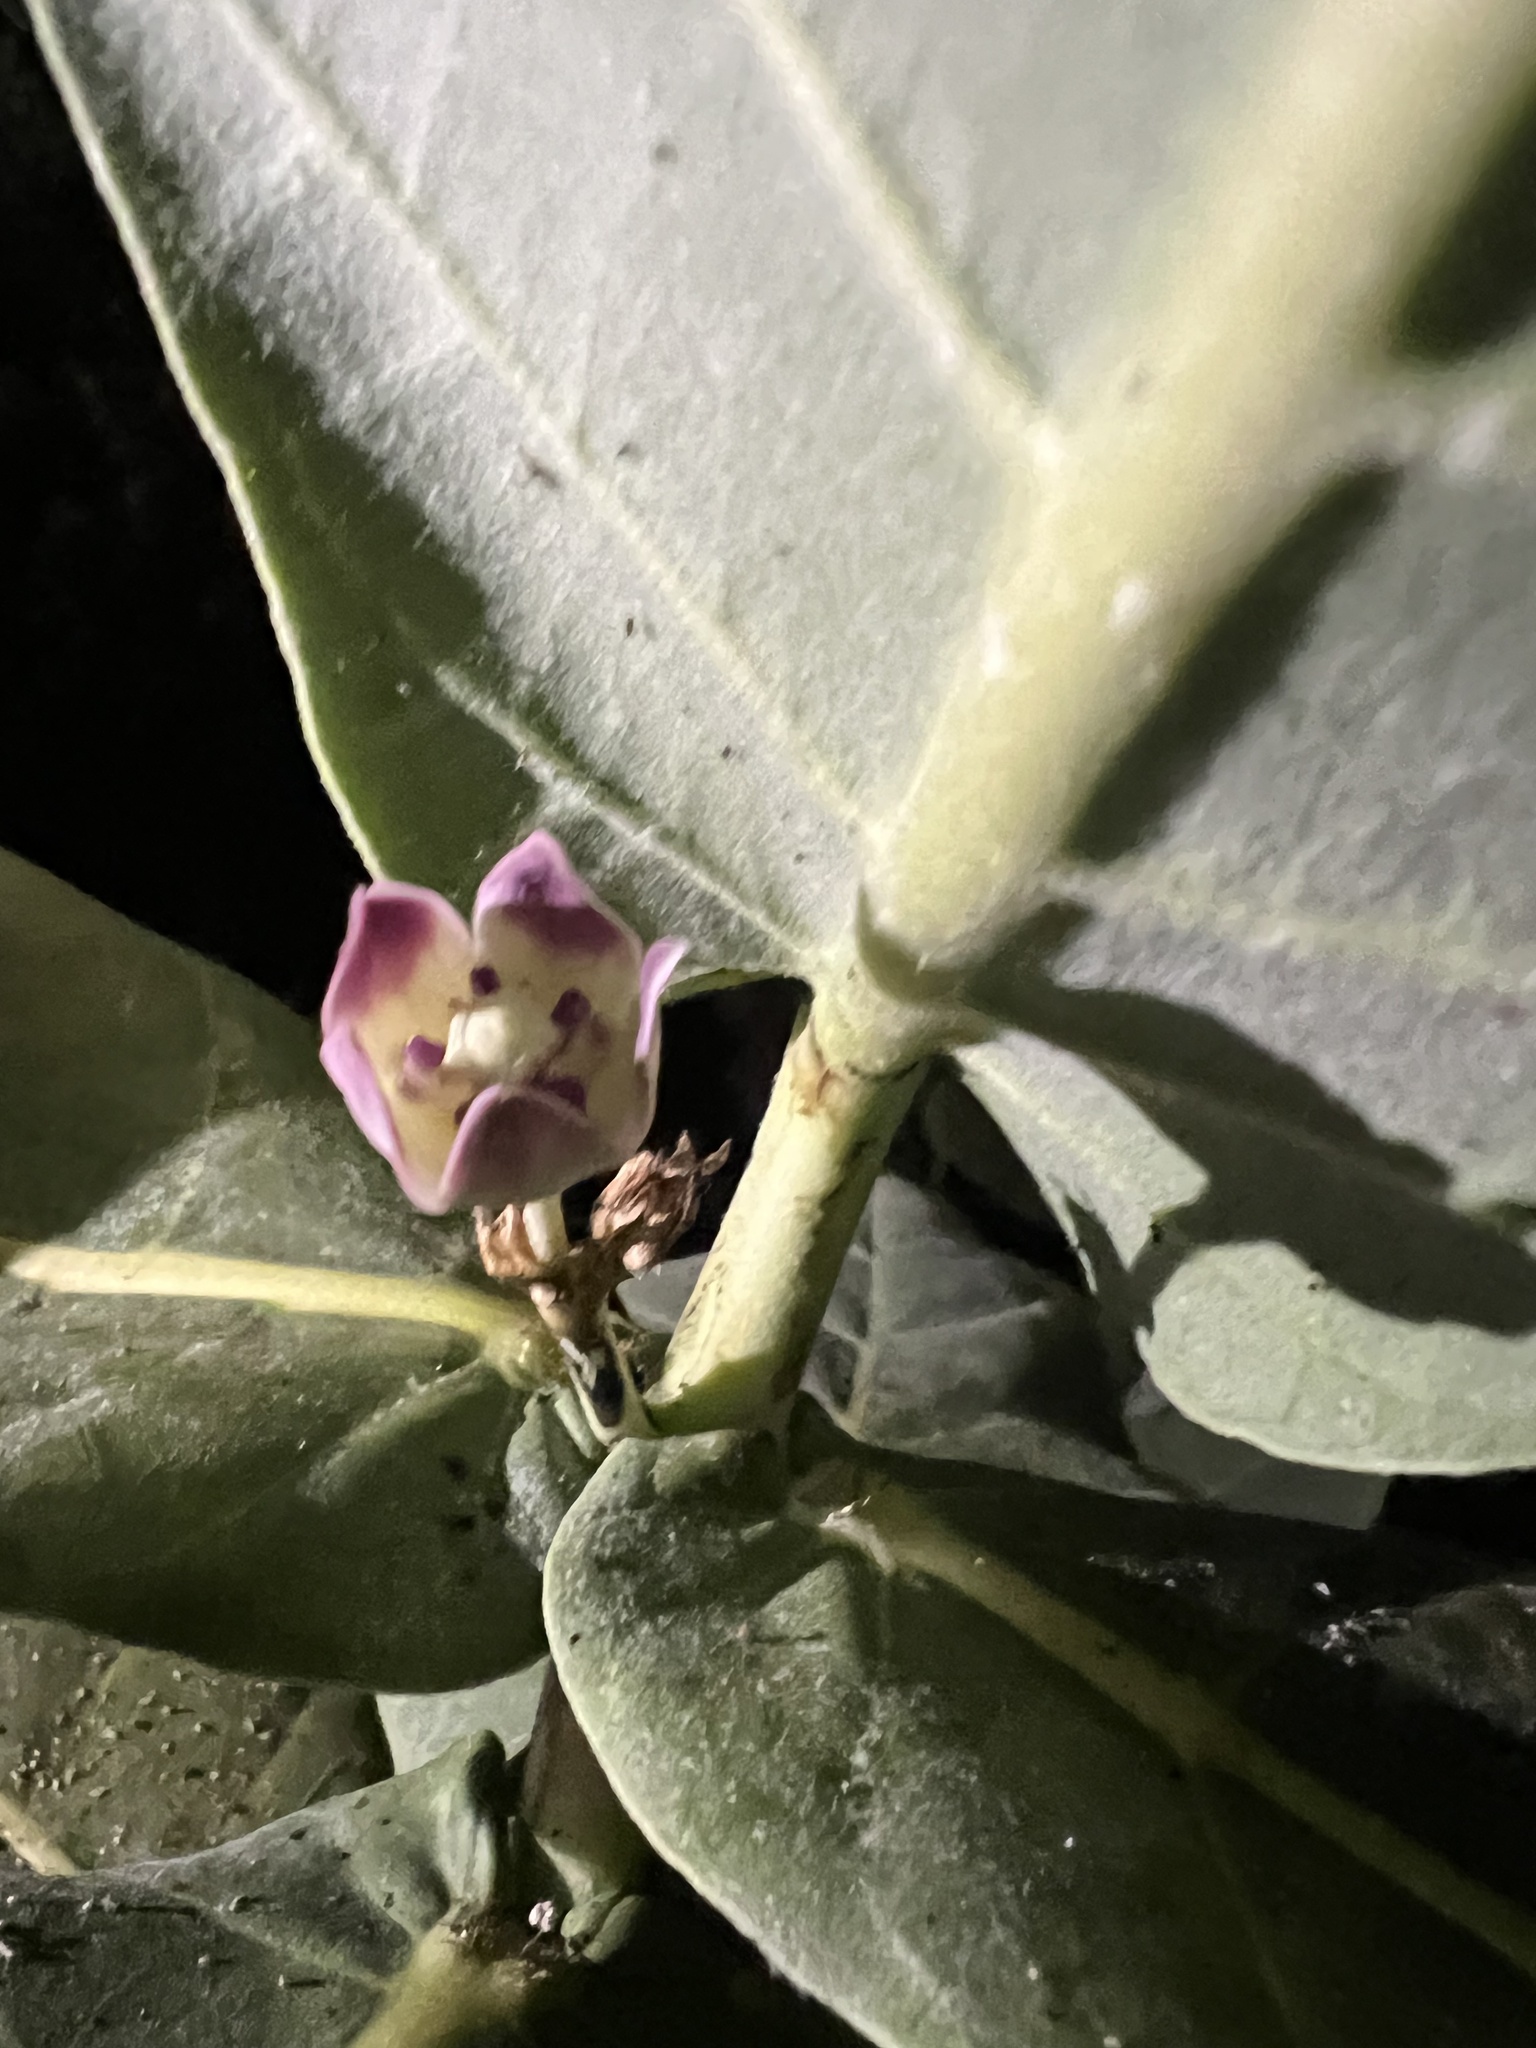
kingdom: Plantae
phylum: Tracheophyta
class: Magnoliopsida
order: Gentianales
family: Apocynaceae
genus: Calotropis
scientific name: Calotropis procera
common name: Roostertree
